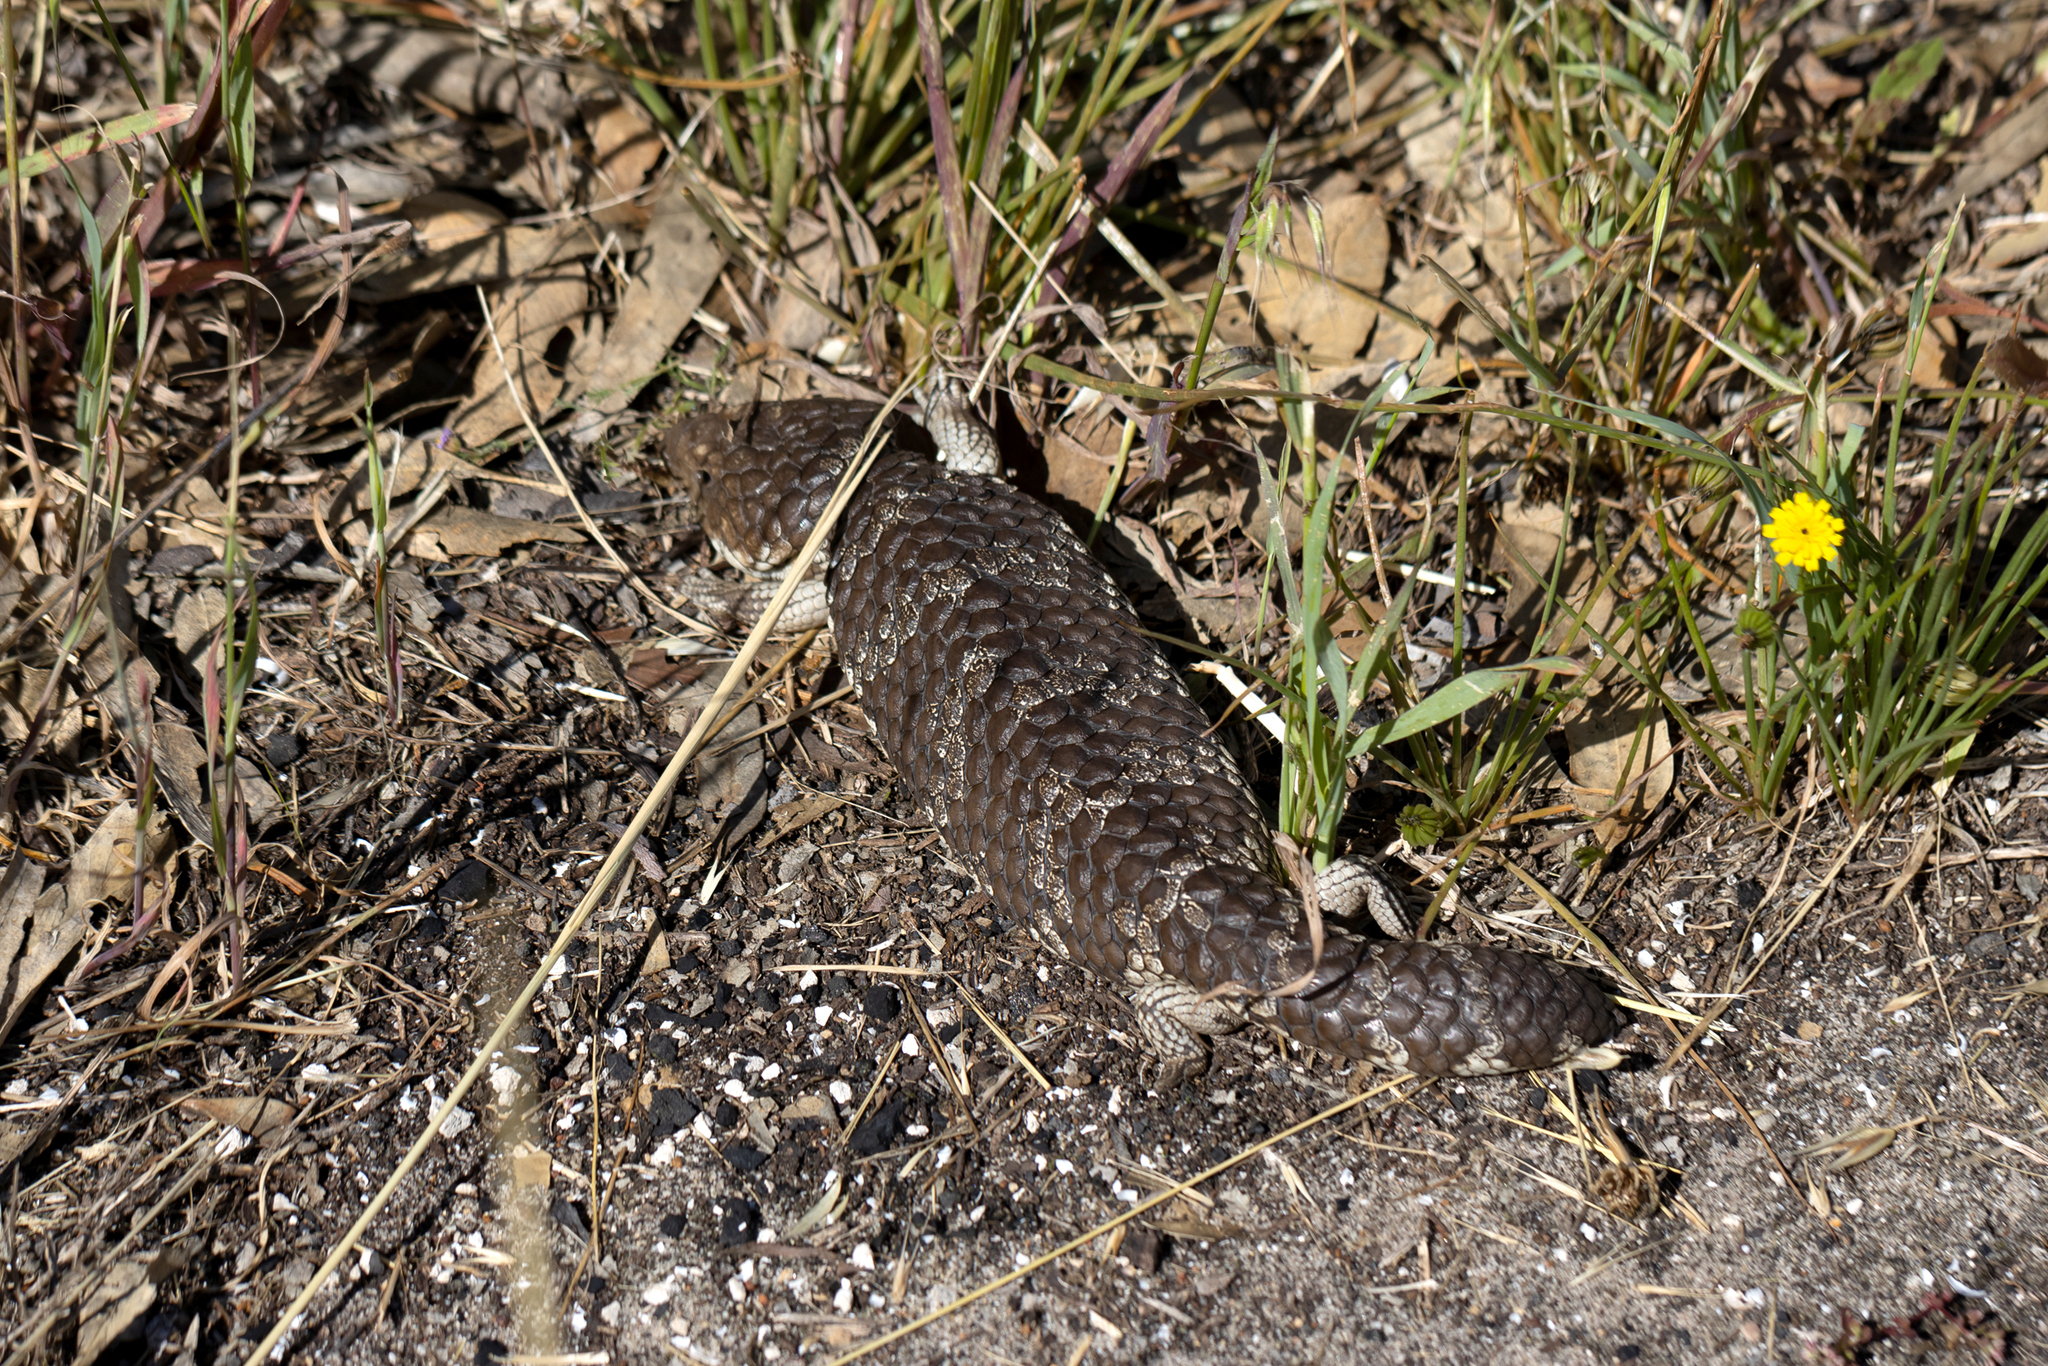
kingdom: Animalia
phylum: Chordata
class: Squamata
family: Scincidae
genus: Tiliqua
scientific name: Tiliqua rugosa
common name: Pinecone lizard
